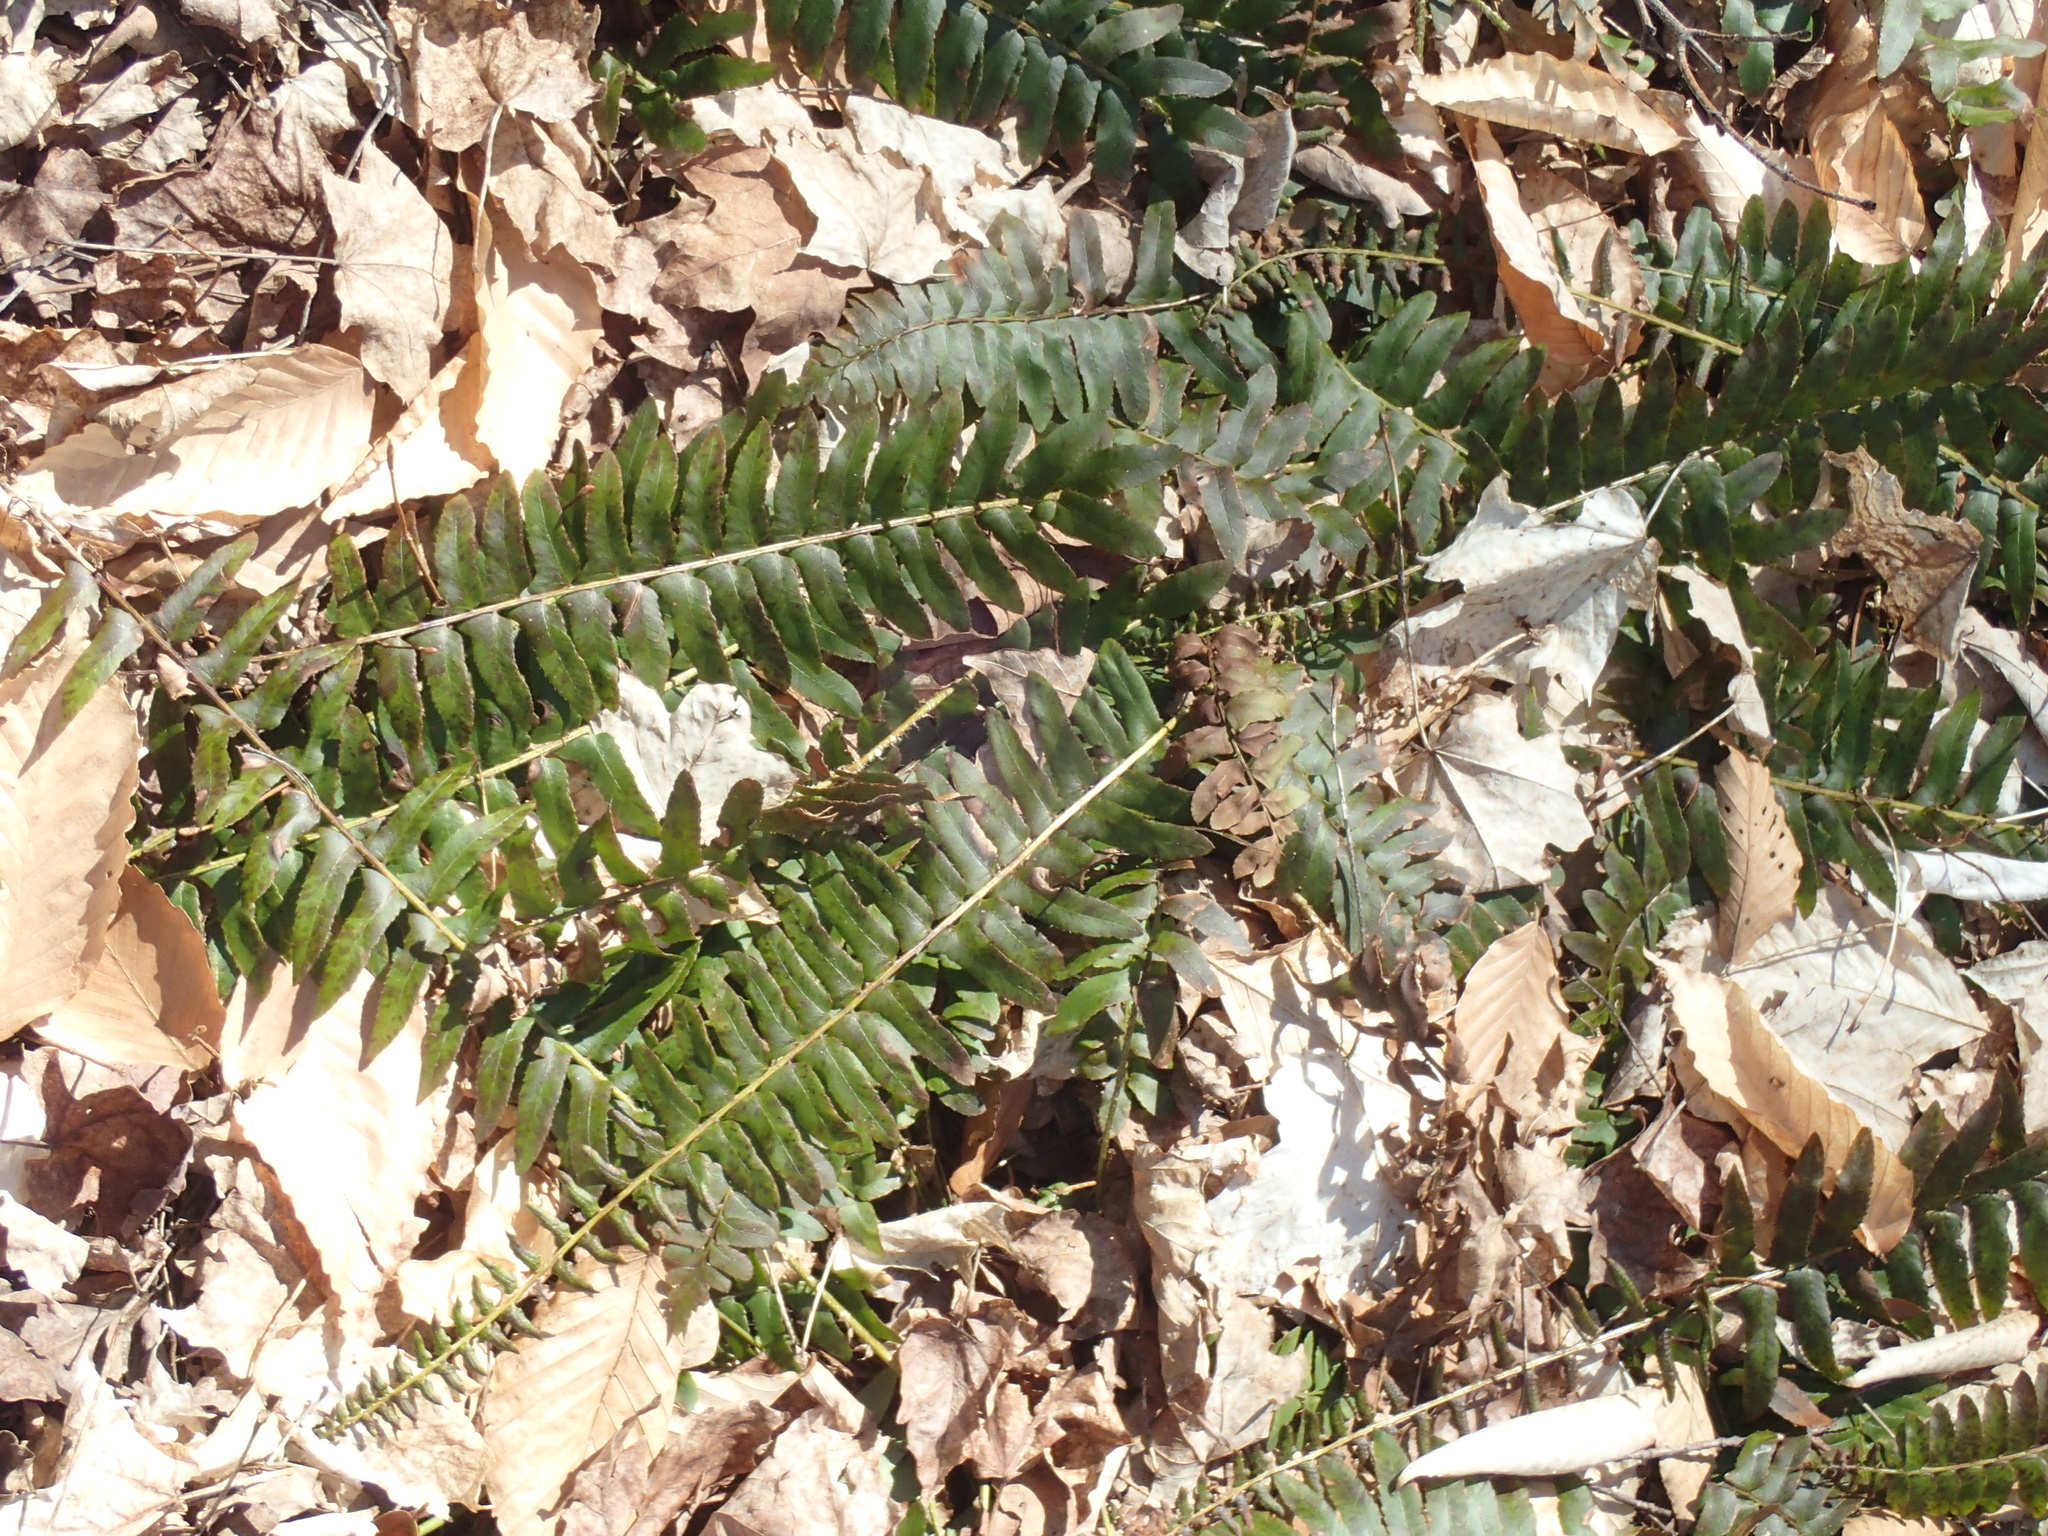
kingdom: Plantae
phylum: Tracheophyta
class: Polypodiopsida
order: Polypodiales
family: Dryopteridaceae
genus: Polystichum
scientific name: Polystichum acrostichoides
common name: Christmas fern
